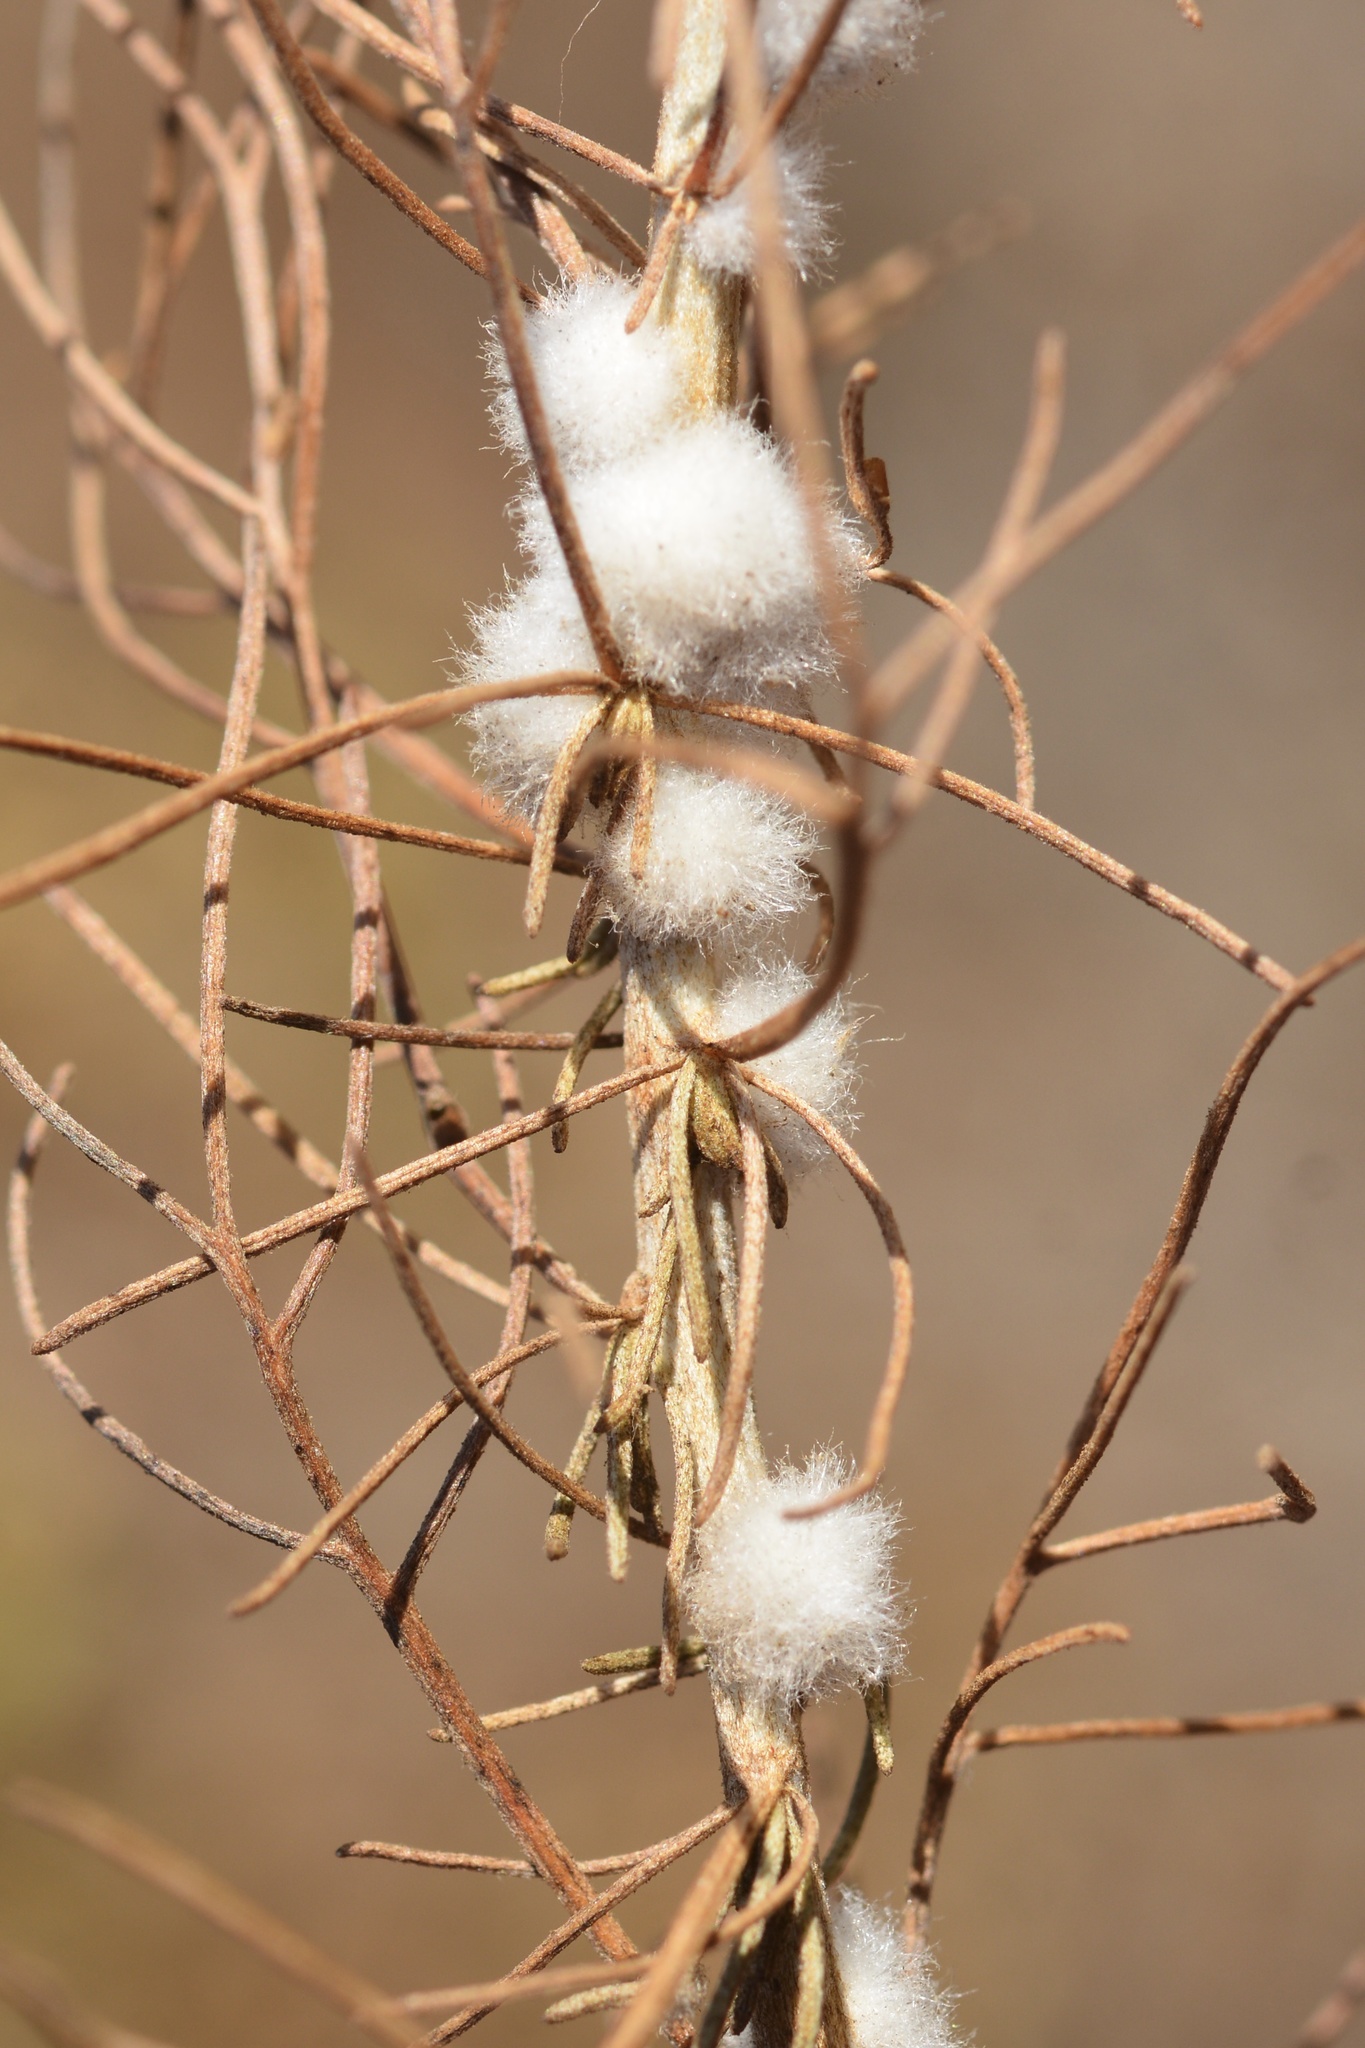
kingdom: Animalia
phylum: Arthropoda
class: Insecta
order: Diptera
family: Cecidomyiidae
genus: Rhopalomyia
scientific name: Rhopalomyia floccosa
